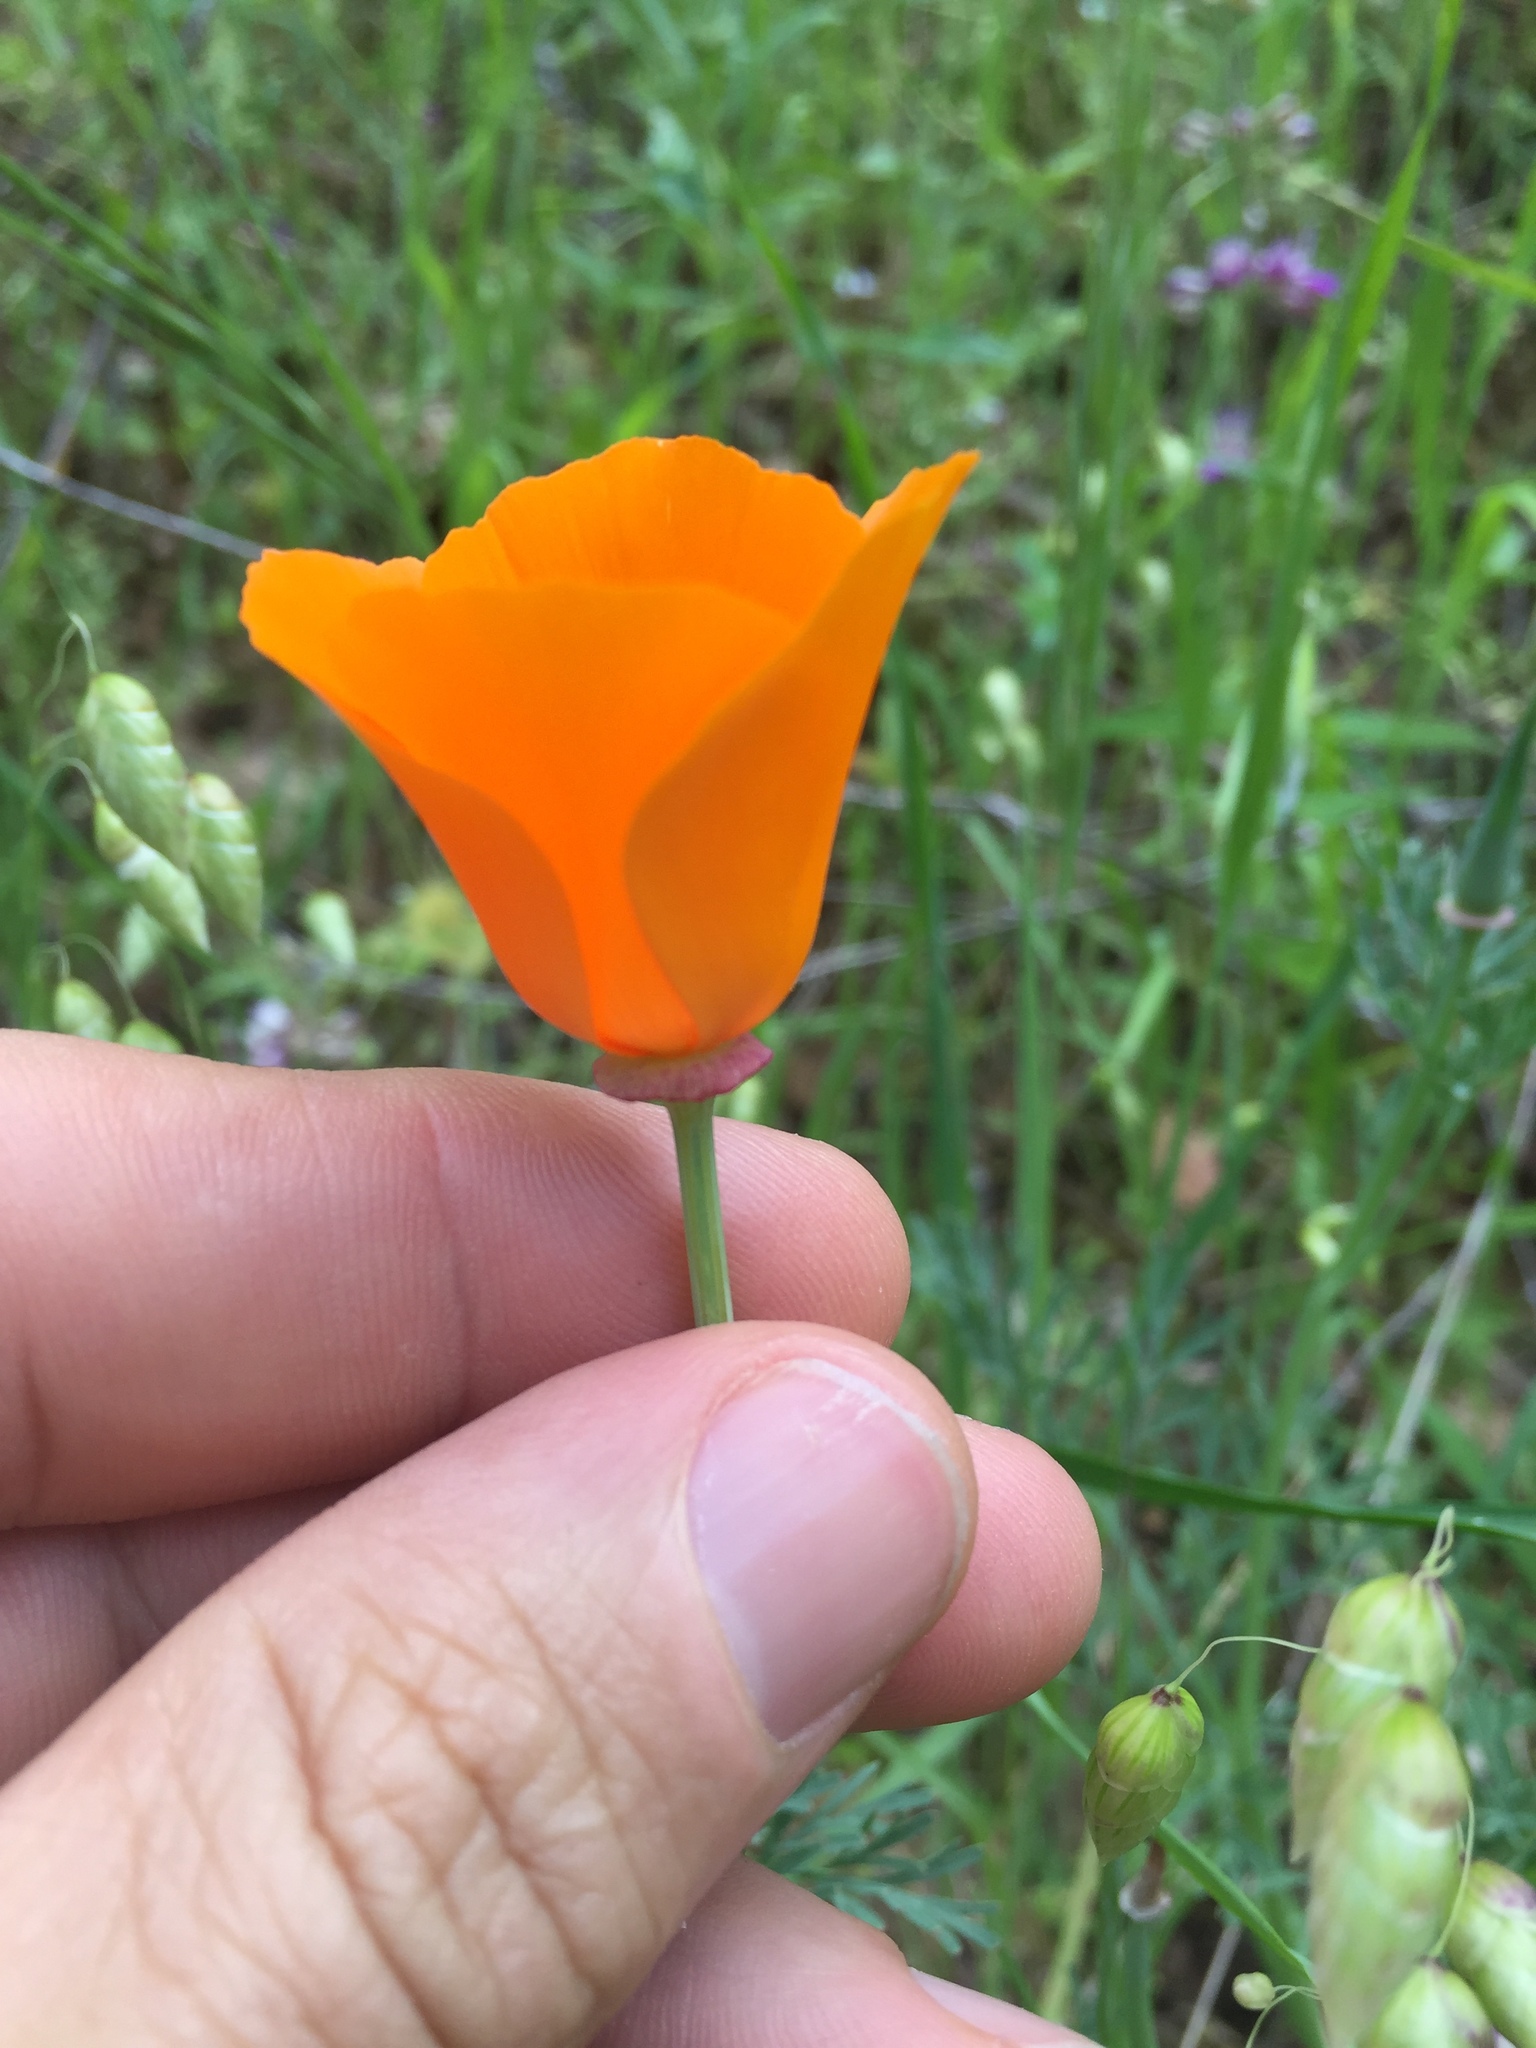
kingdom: Plantae
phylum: Tracheophyta
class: Magnoliopsida
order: Ranunculales
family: Papaveraceae
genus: Eschscholzia
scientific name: Eschscholzia californica
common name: California poppy
